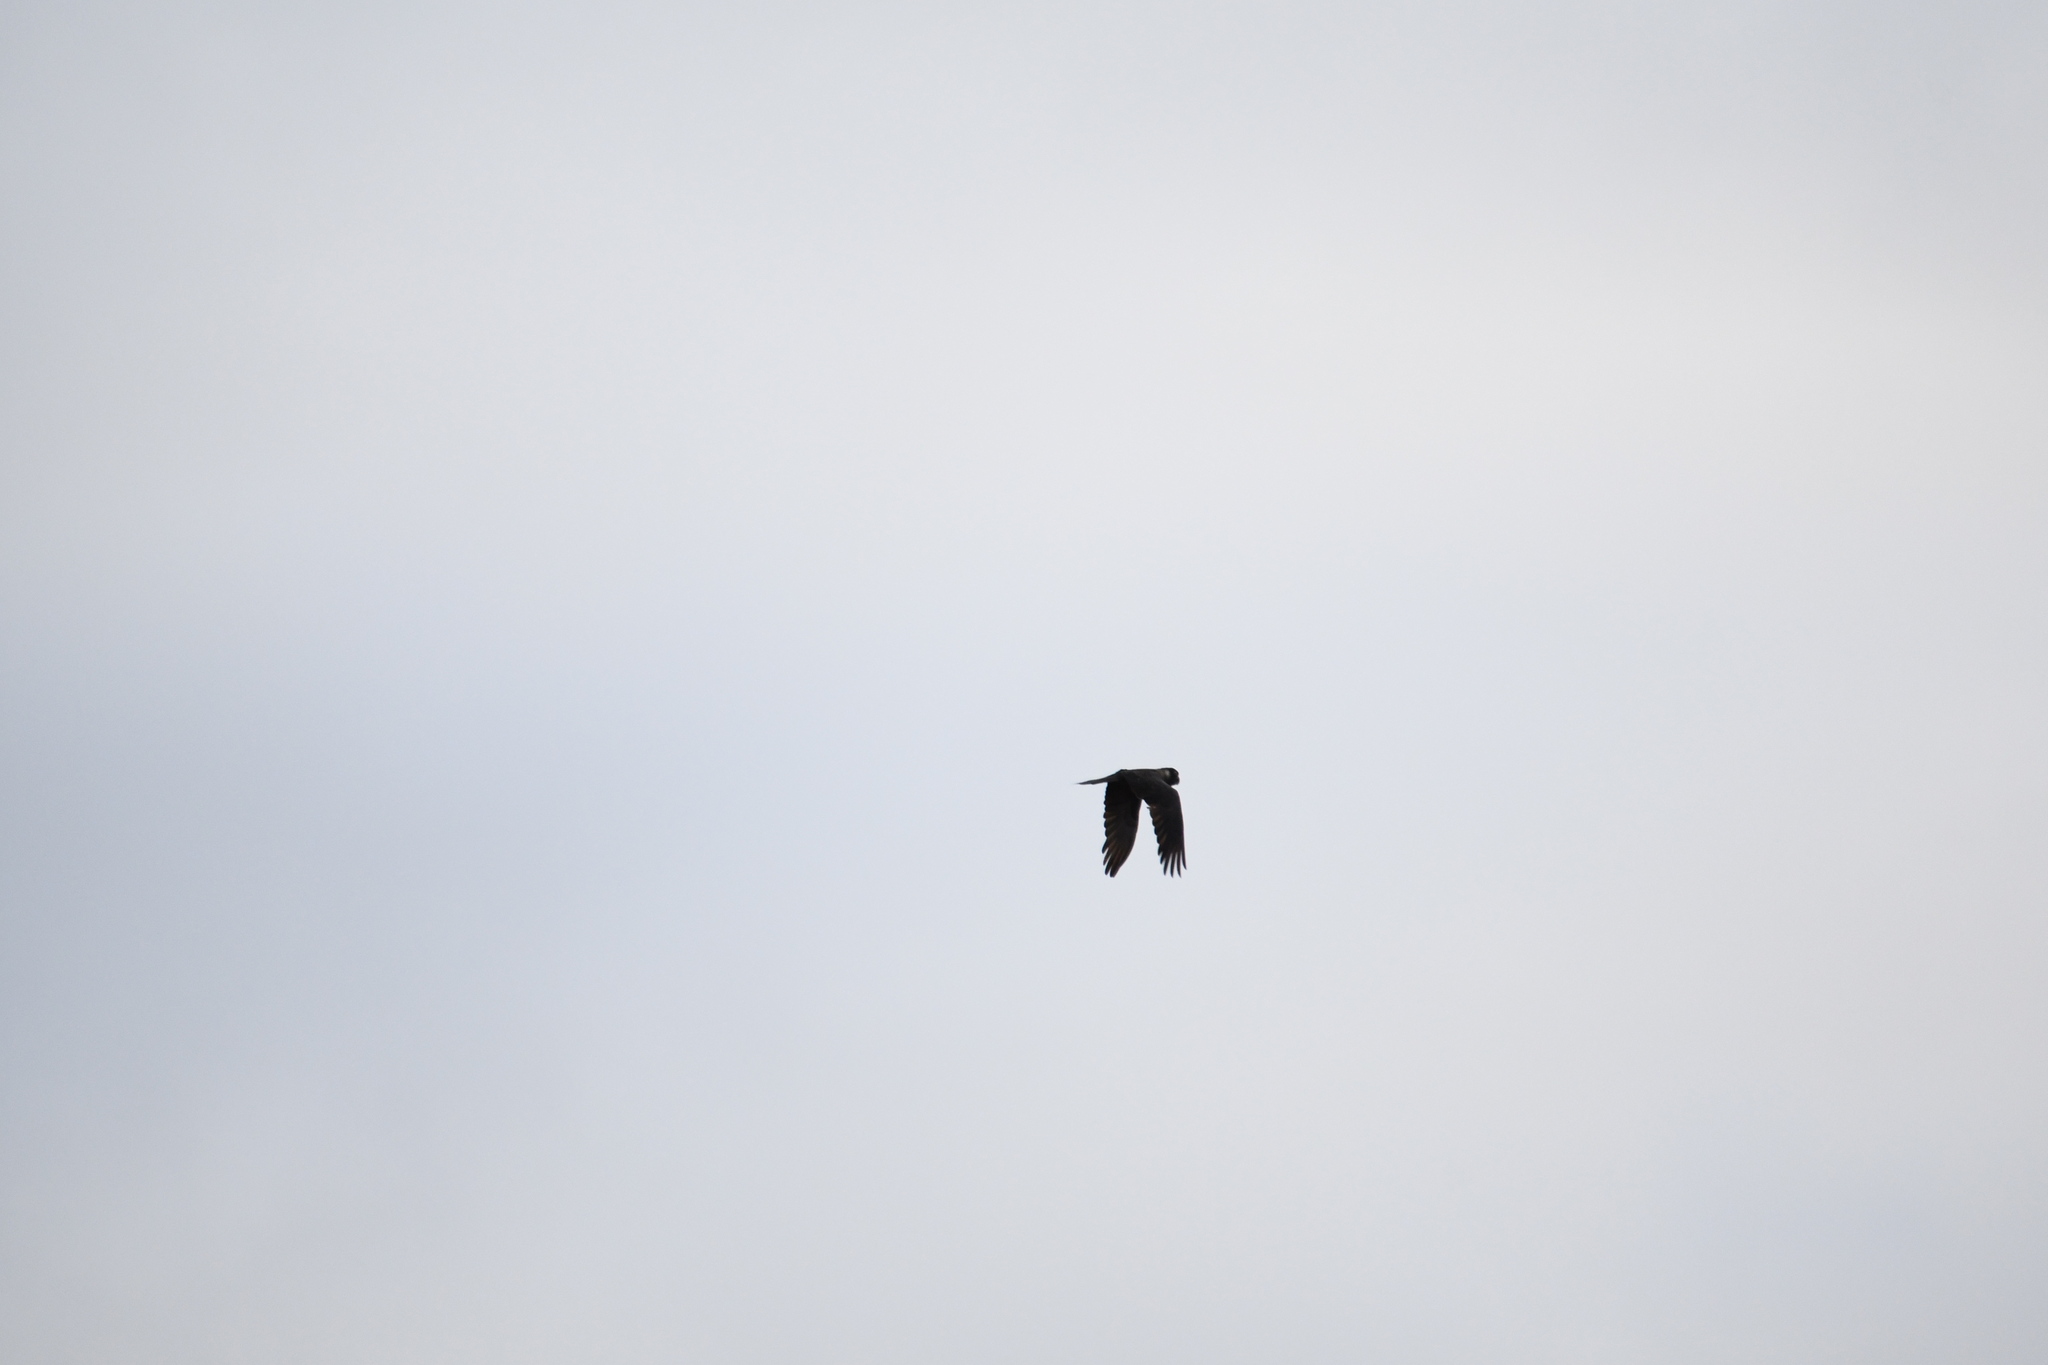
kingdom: Animalia
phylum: Chordata
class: Aves
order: Psittaciformes
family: Cacatuidae
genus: Zanda
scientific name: Zanda latirostris
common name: Short-billed black-cockatoo
